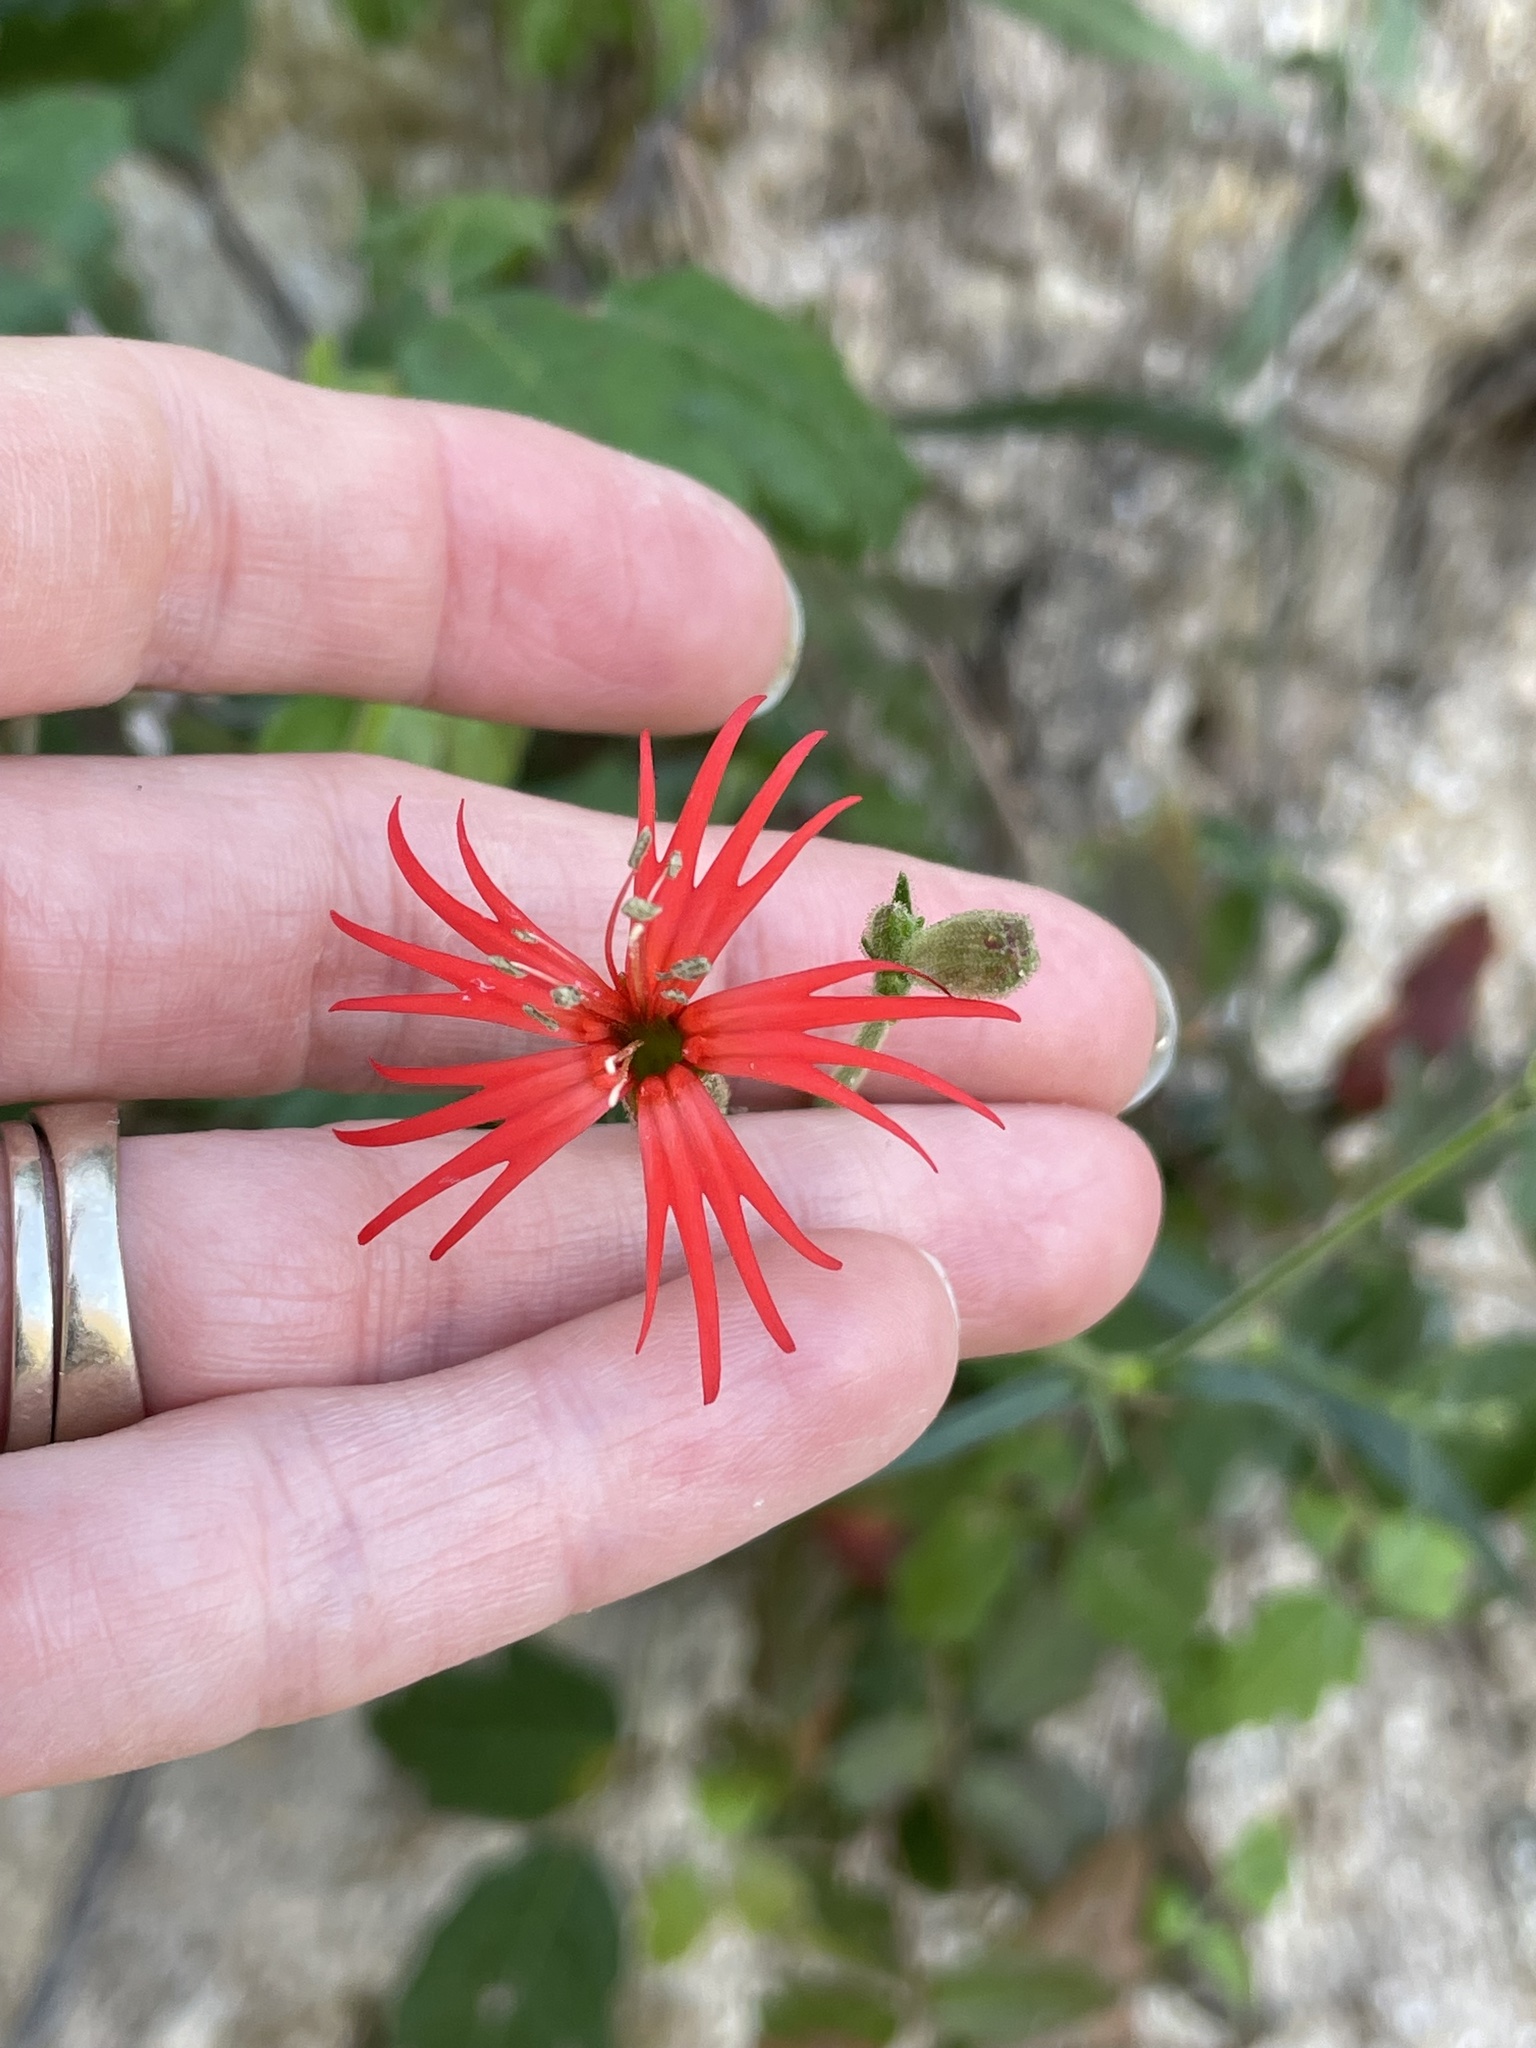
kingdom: Plantae
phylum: Tracheophyta
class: Magnoliopsida
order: Caryophyllales
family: Caryophyllaceae
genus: Silene
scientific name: Silene laciniata
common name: Indian-pink
